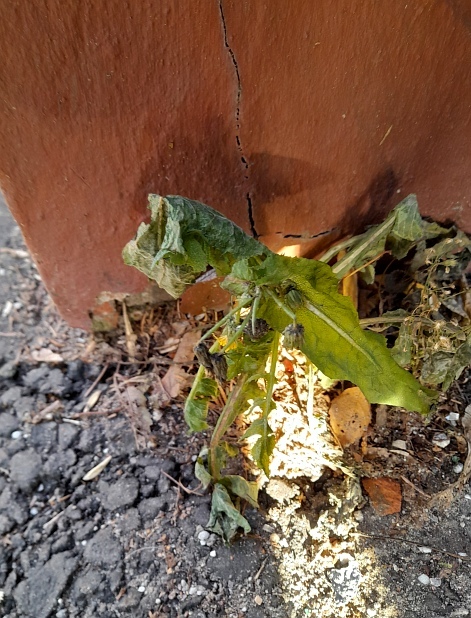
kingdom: Plantae
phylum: Tracheophyta
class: Magnoliopsida
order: Asterales
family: Asteraceae
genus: Sonchus
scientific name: Sonchus oleraceus
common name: Common sowthistle
